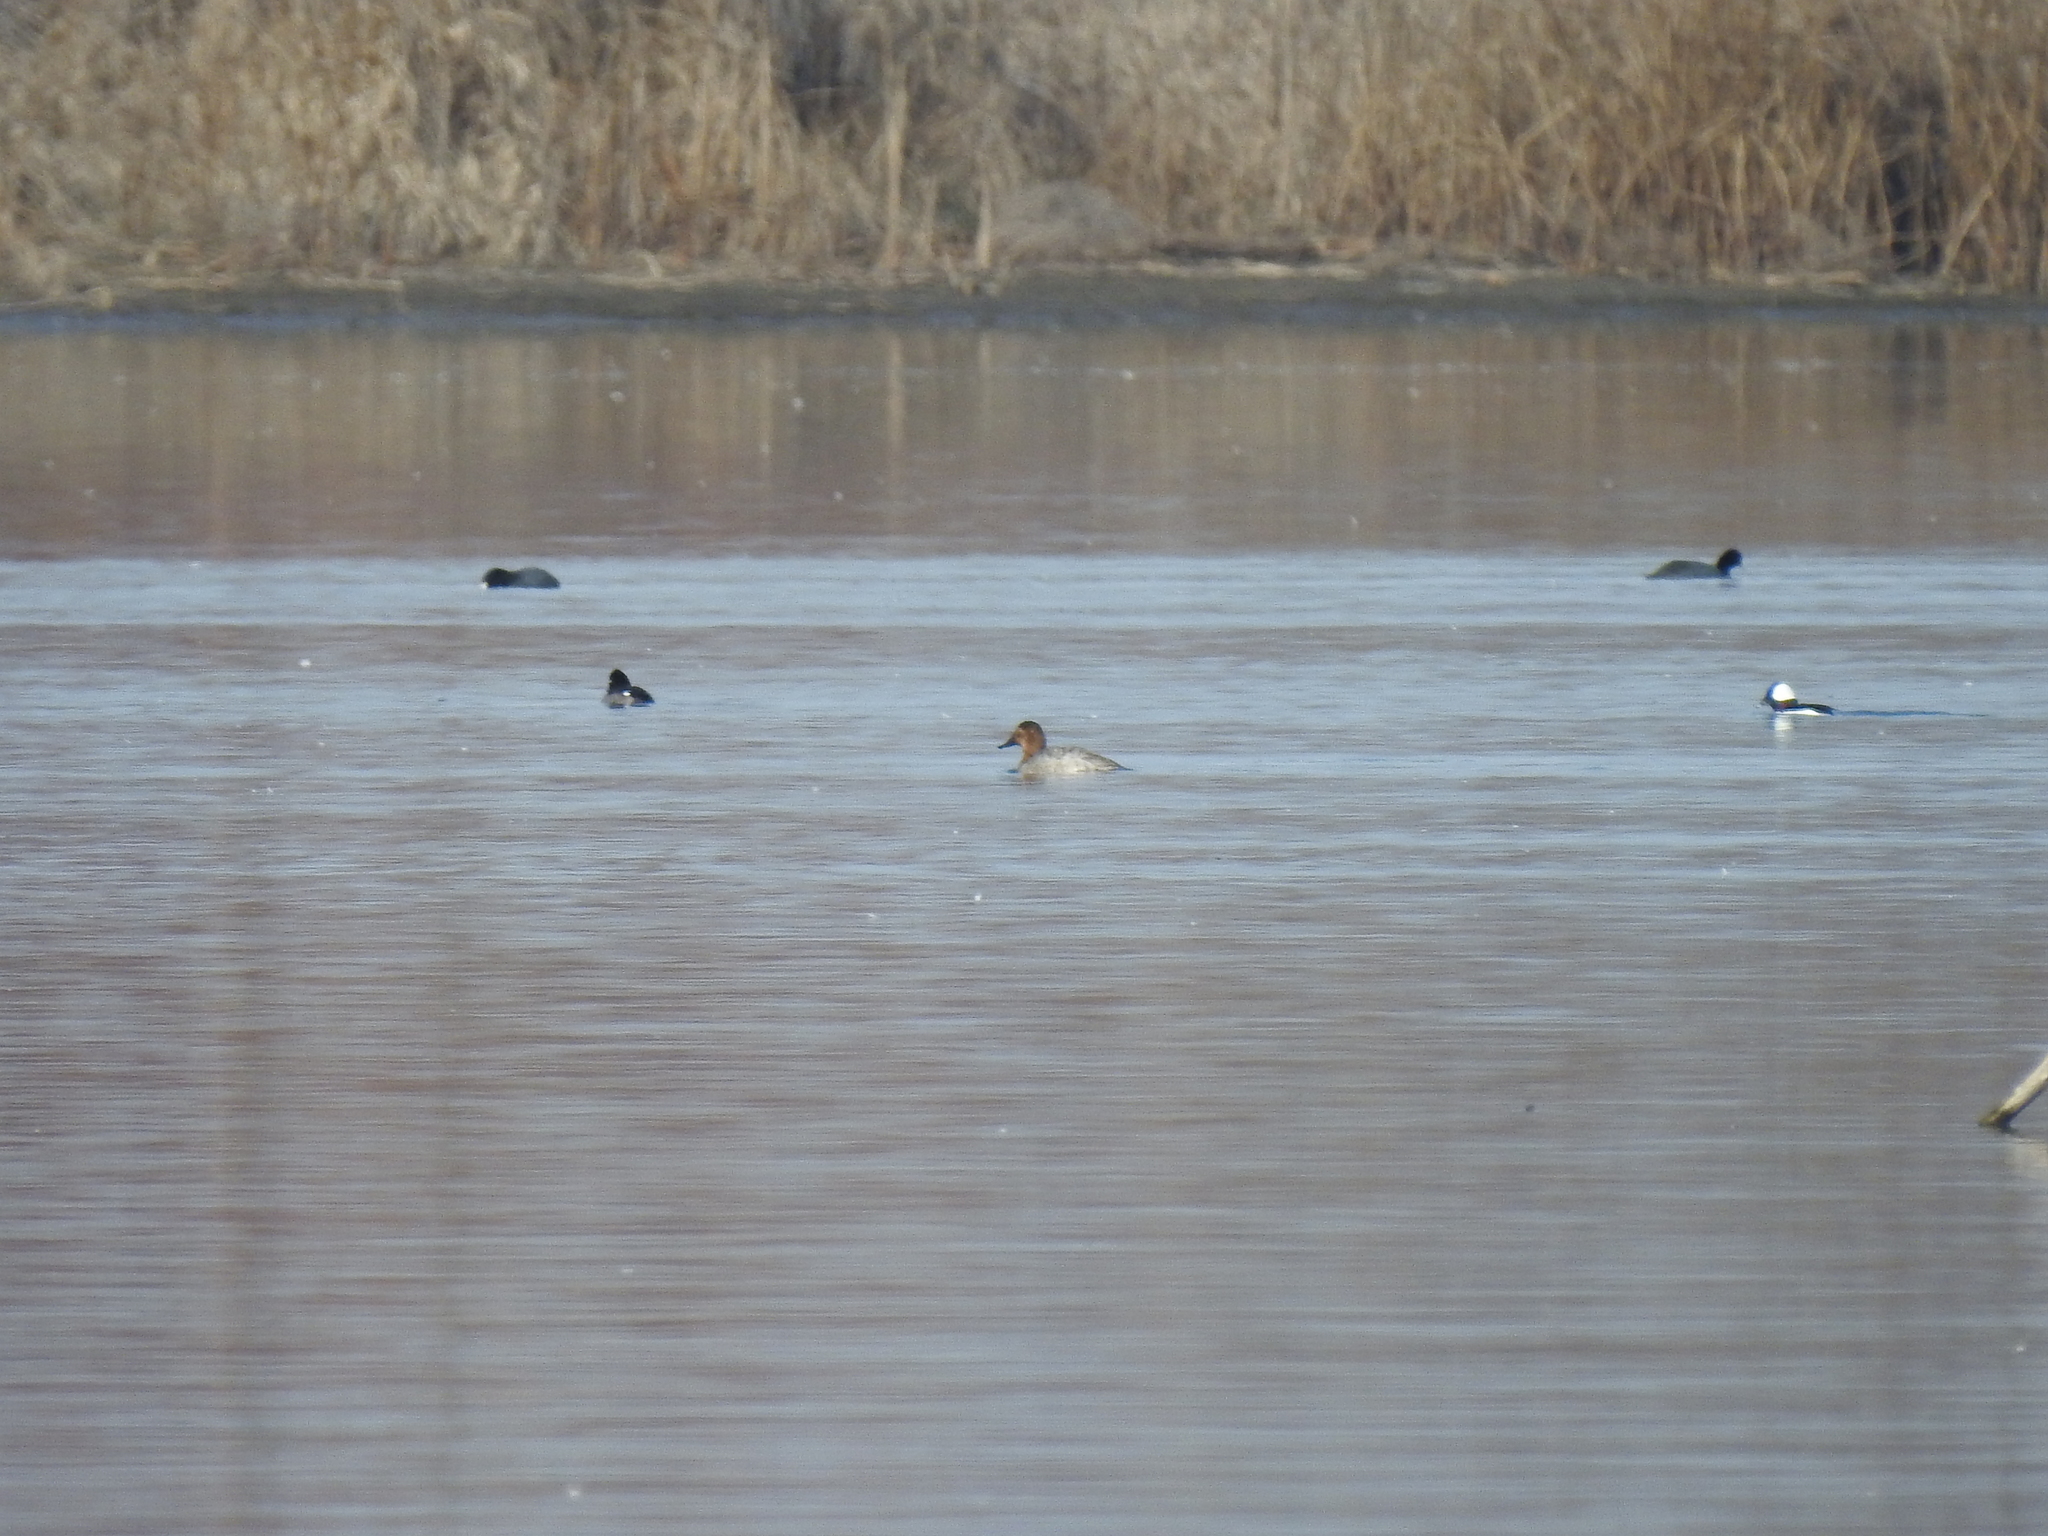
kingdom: Animalia
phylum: Chordata
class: Aves
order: Anseriformes
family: Anatidae
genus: Aythya
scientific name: Aythya valisineria
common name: Canvasback
